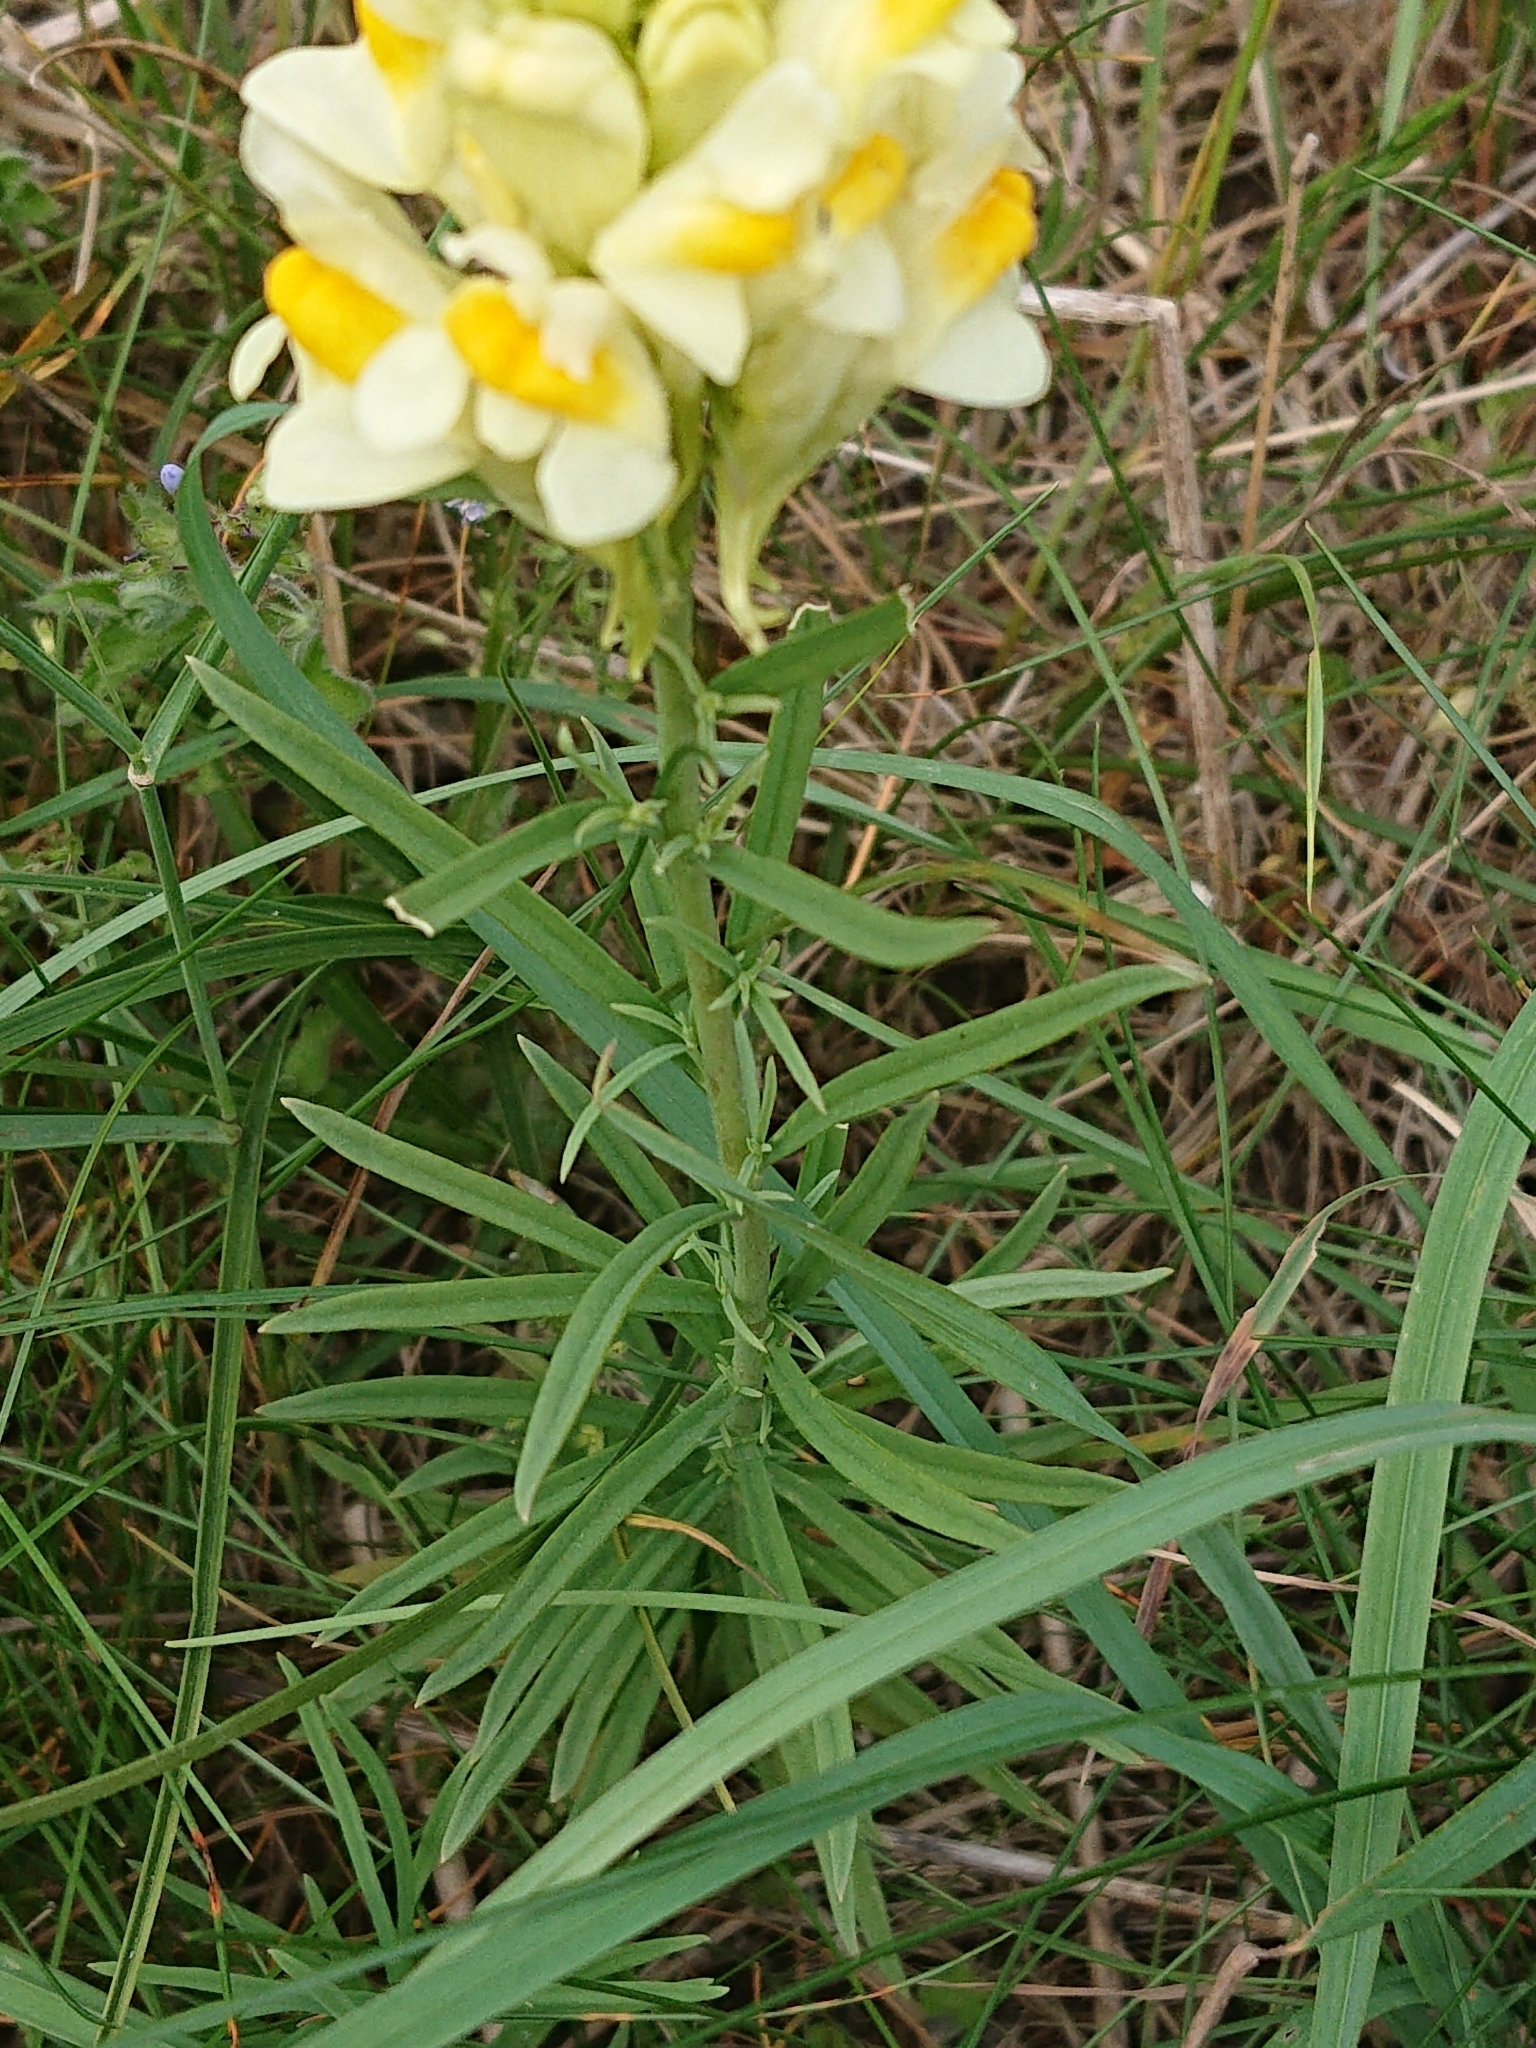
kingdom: Plantae
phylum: Tracheophyta
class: Magnoliopsida
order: Lamiales
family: Plantaginaceae
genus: Linaria
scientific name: Linaria vulgaris
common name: Butter and eggs
